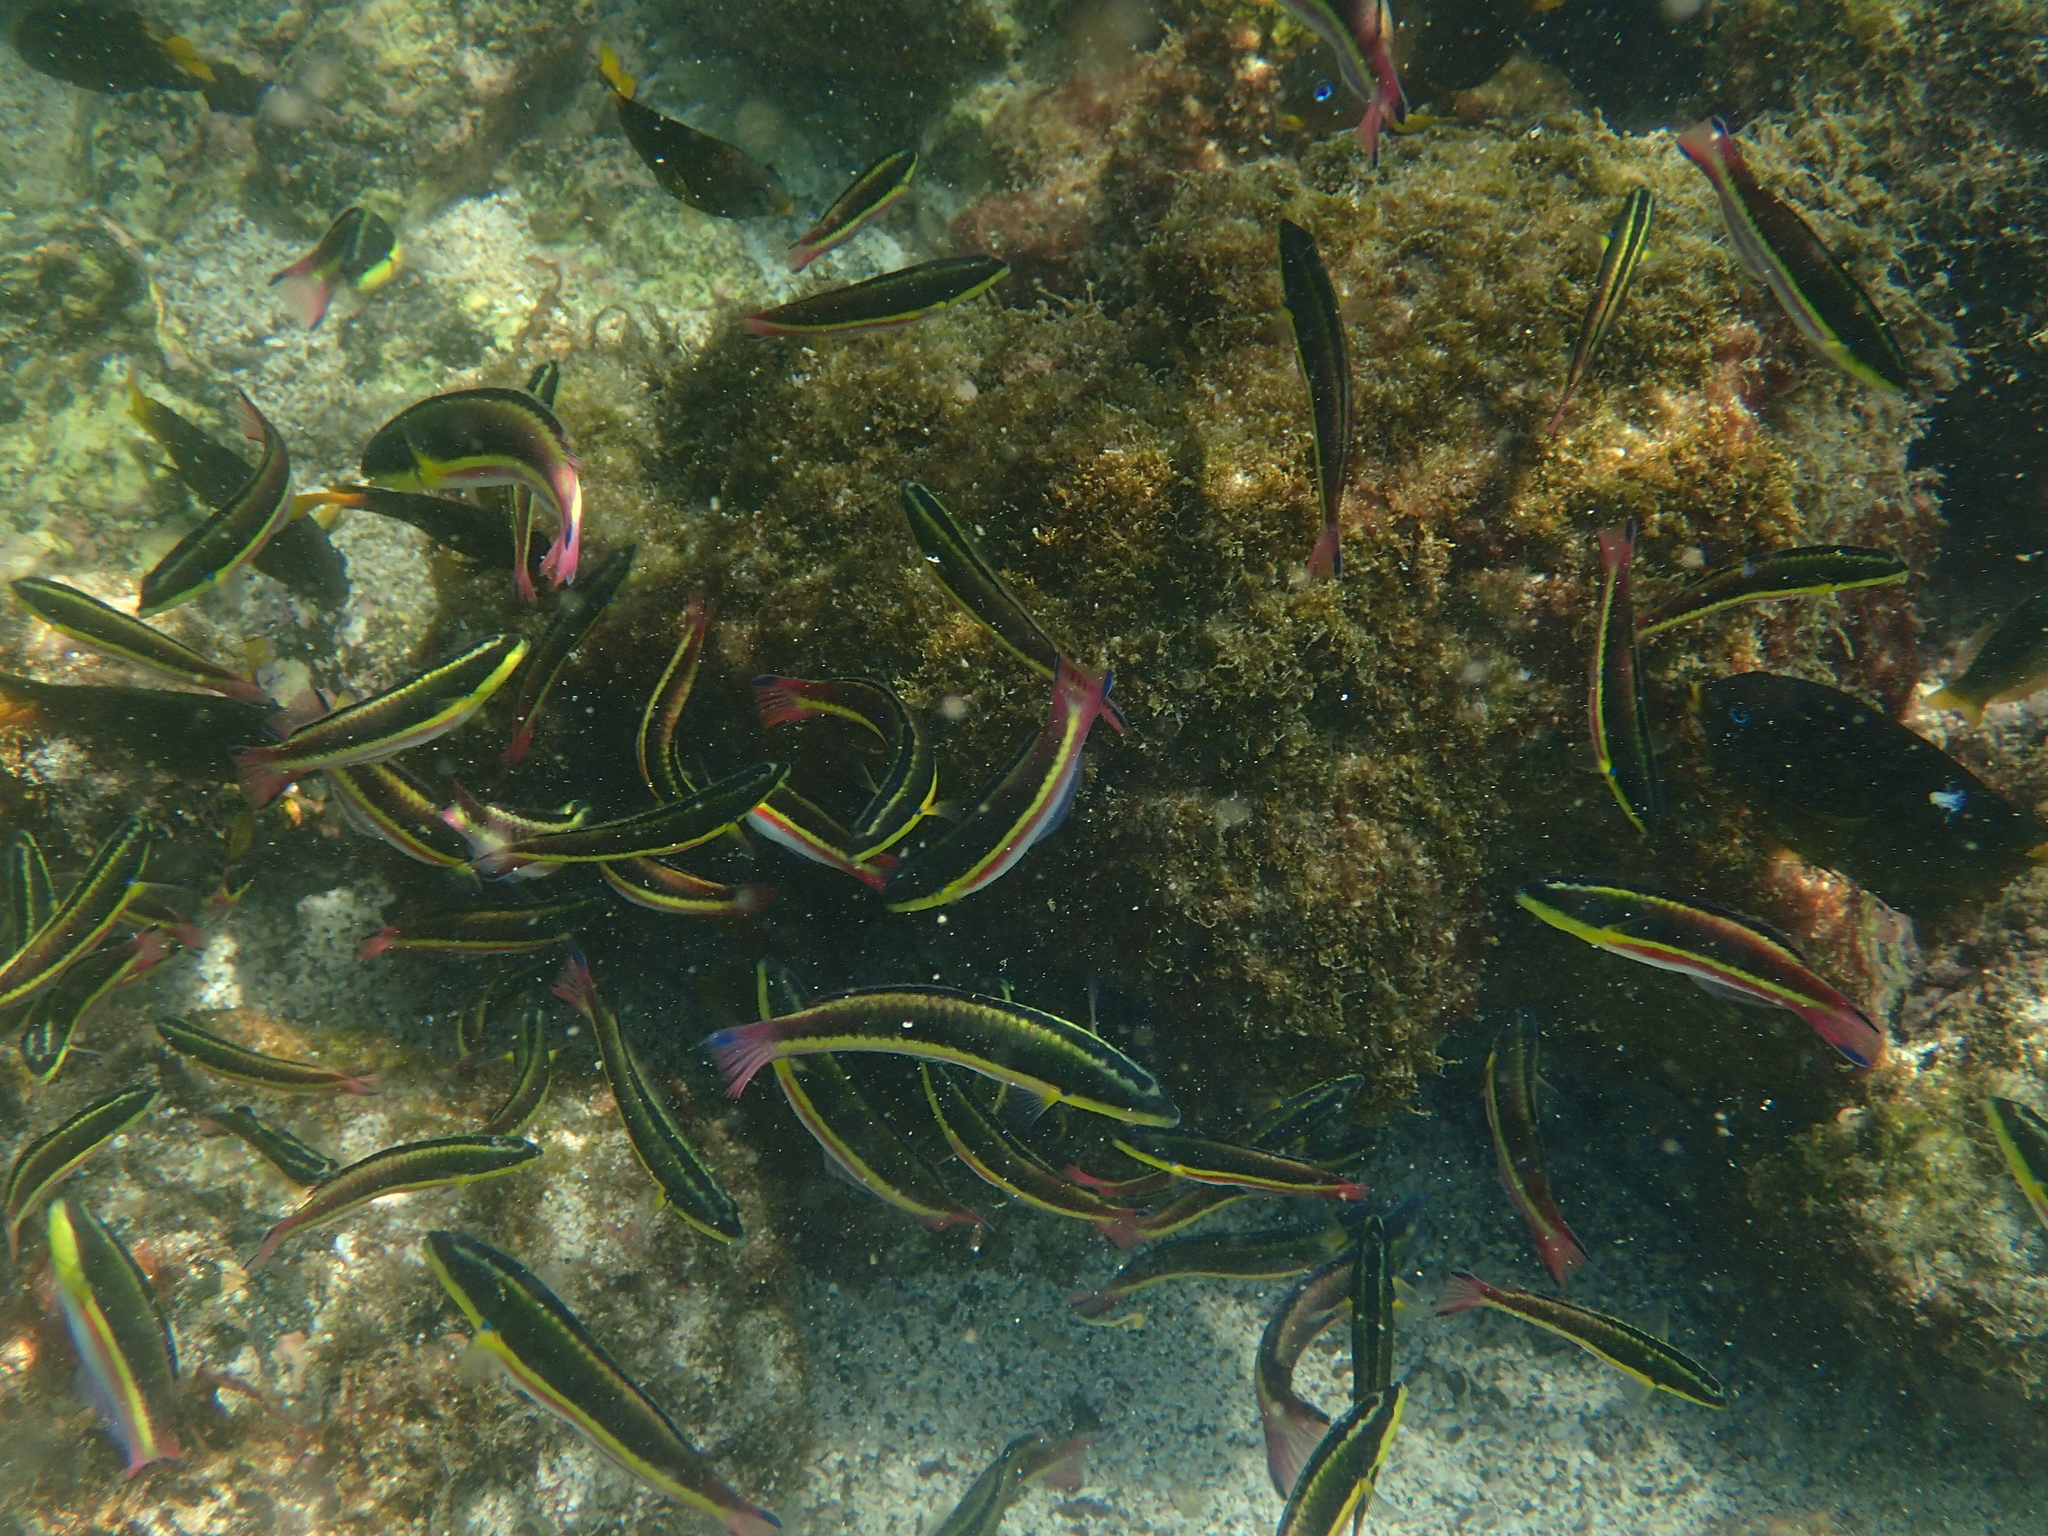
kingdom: Animalia
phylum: Chordata
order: Perciformes
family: Labridae
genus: Thalassoma
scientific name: Thalassoma lucasanum
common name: Cortez rainbow wrasse
